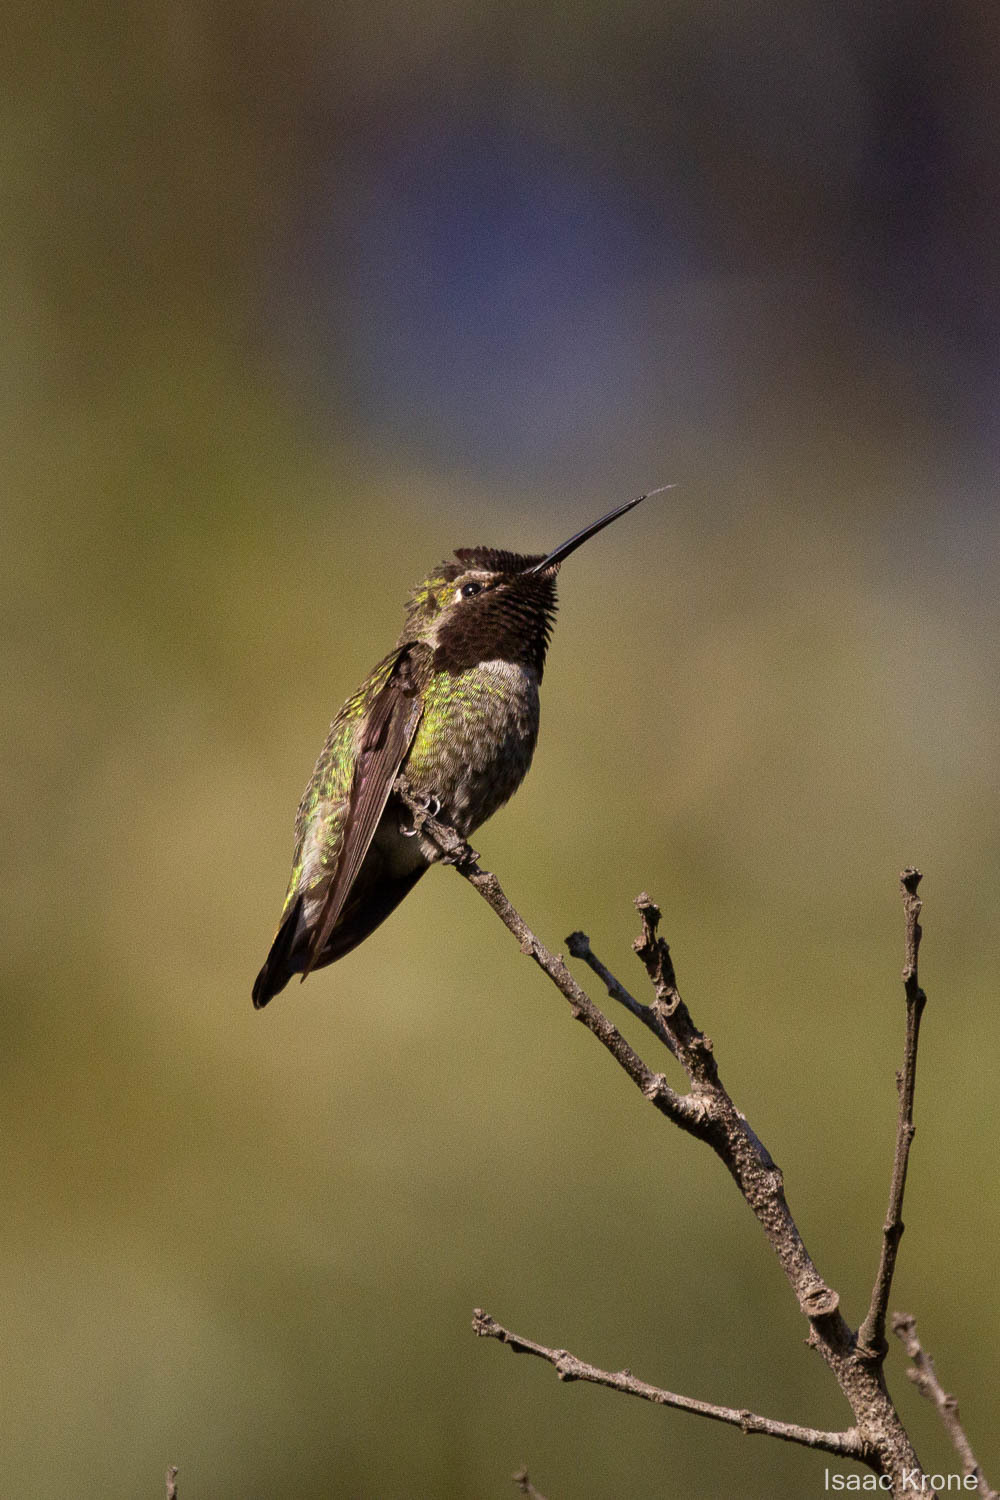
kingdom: Animalia
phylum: Chordata
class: Aves
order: Apodiformes
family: Trochilidae
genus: Calypte
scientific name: Calypte anna
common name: Anna's hummingbird
